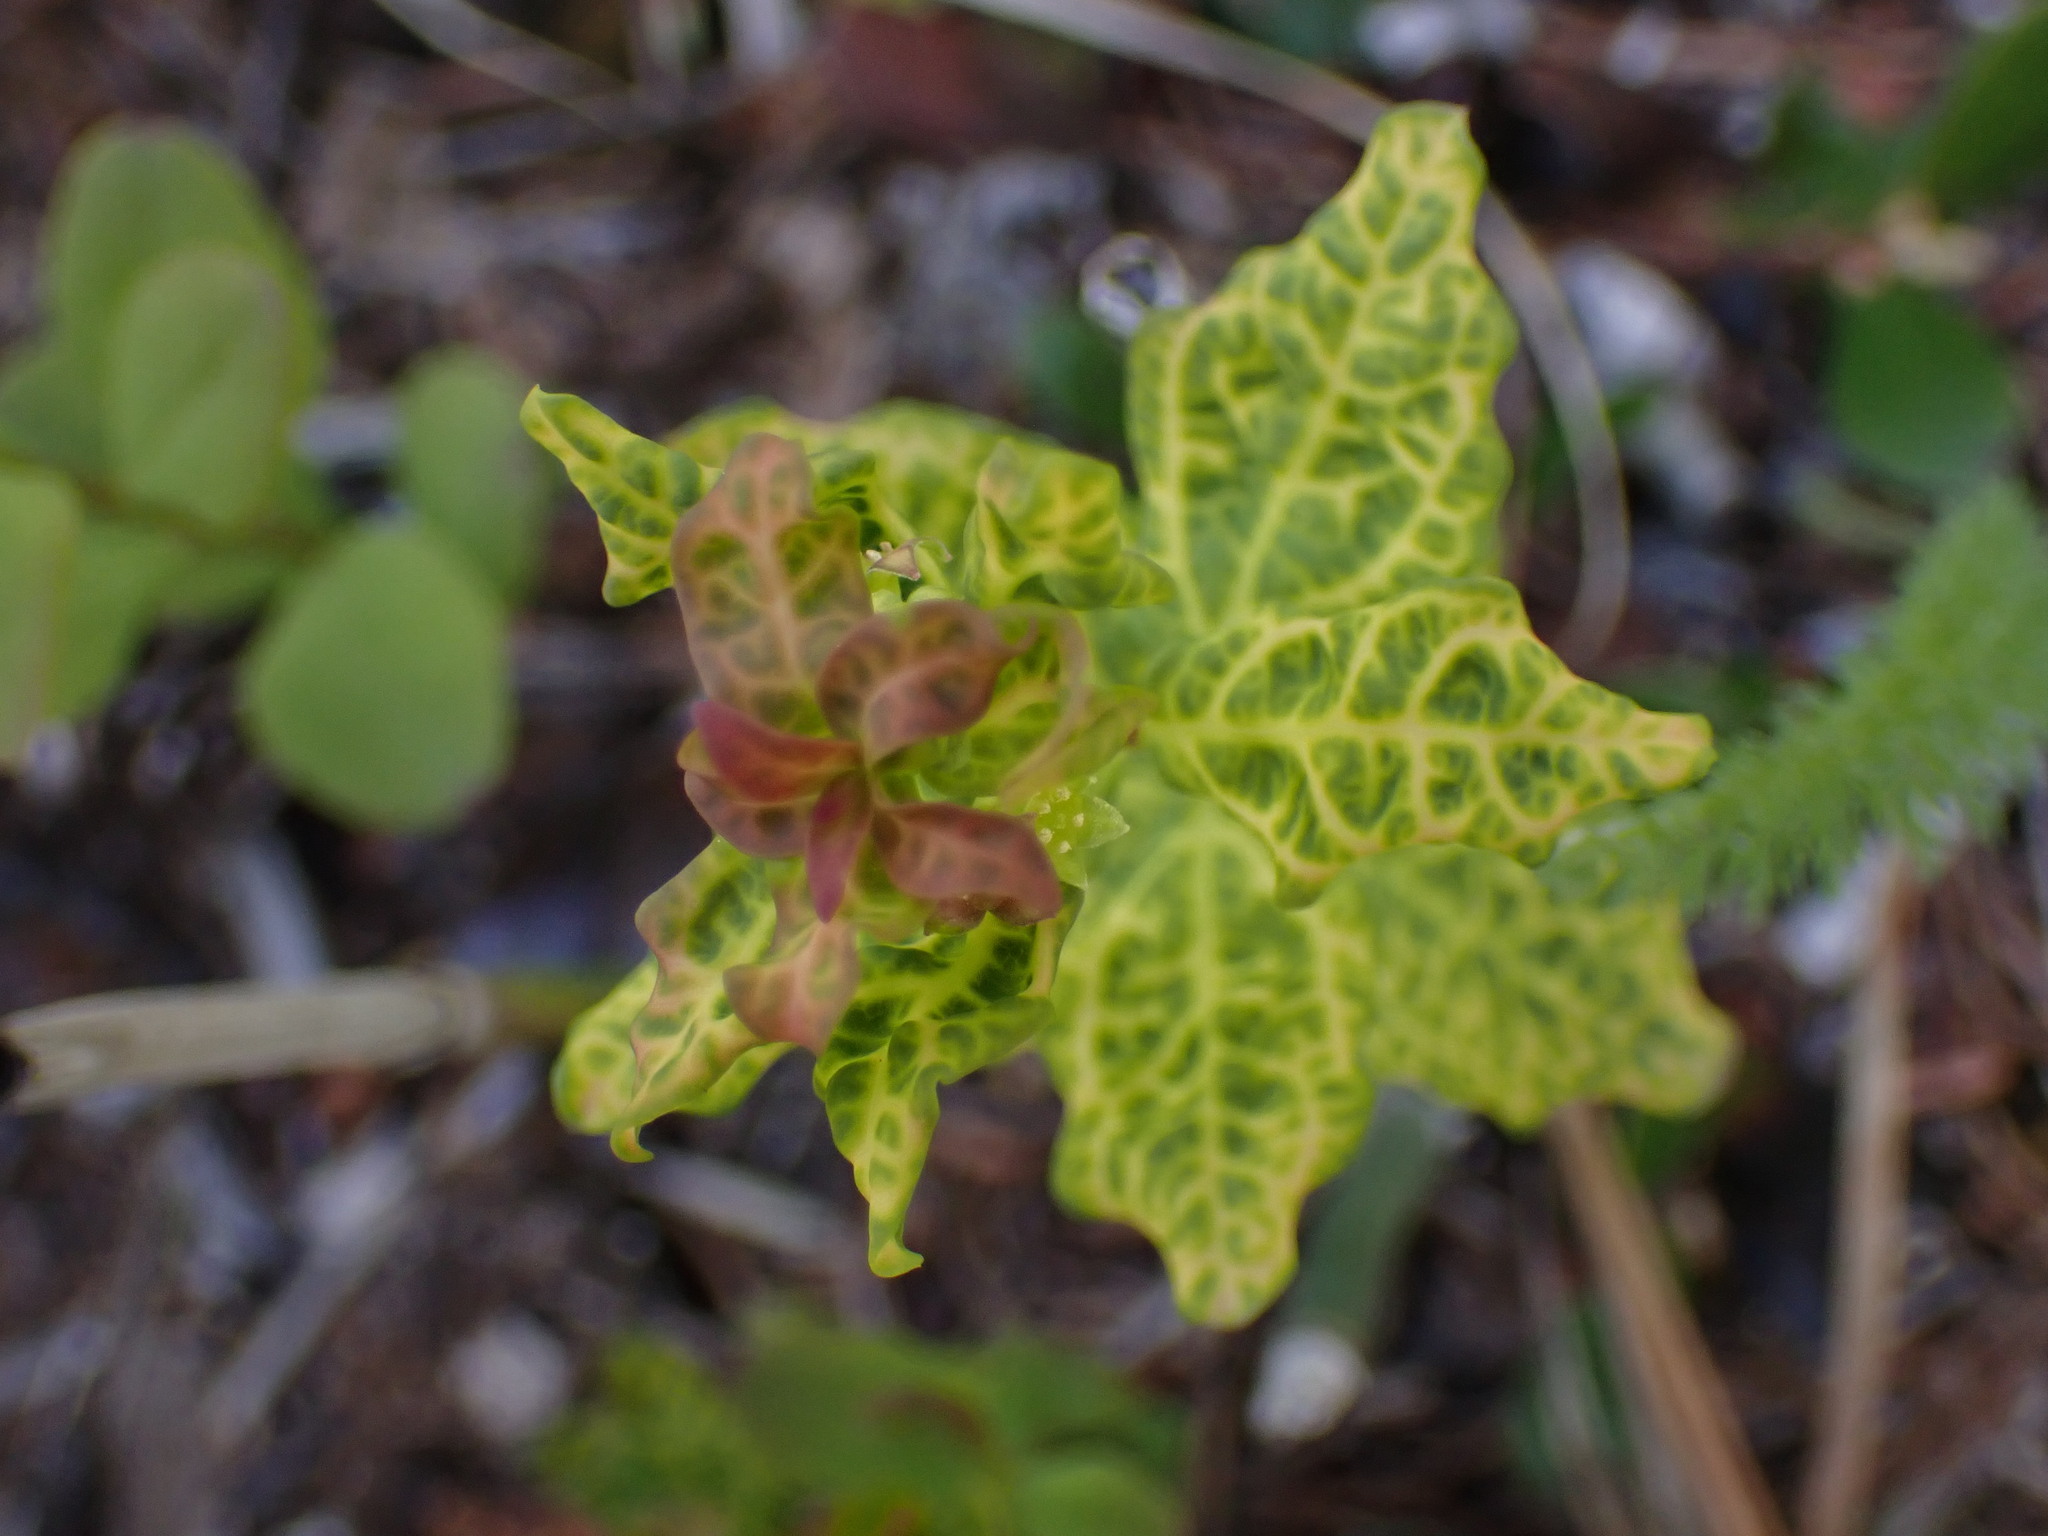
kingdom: Plantae
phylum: Tracheophyta
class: Magnoliopsida
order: Santalales
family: Comandraceae
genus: Geocaulon
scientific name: Geocaulon lividum
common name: Earthberry
